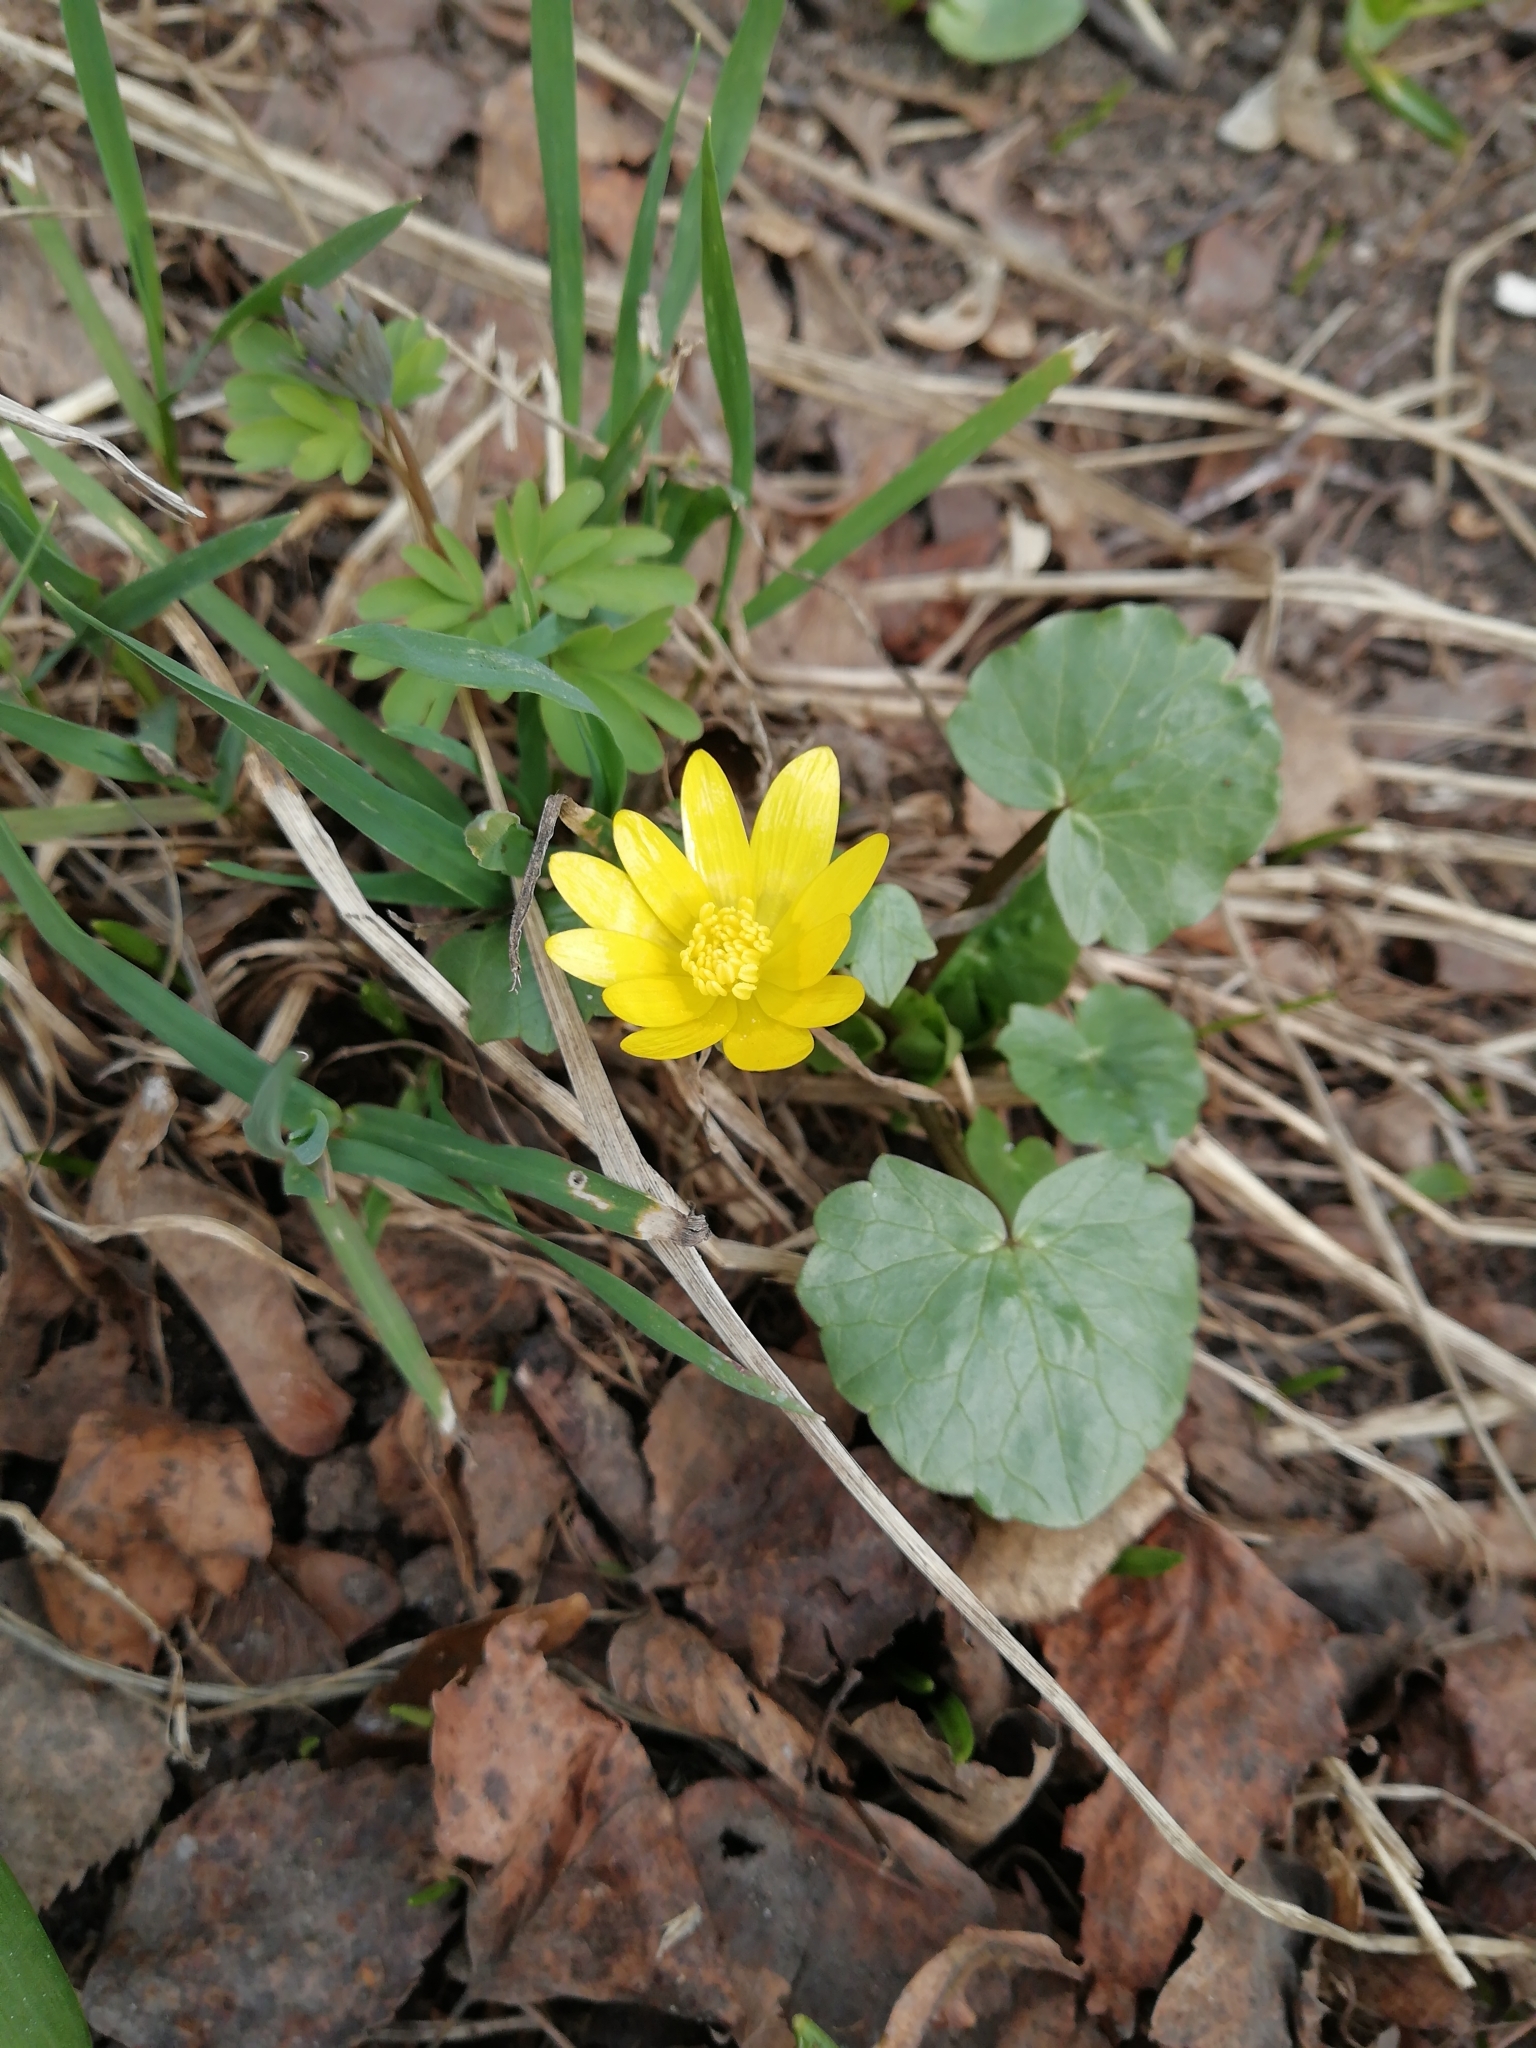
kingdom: Plantae
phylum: Tracheophyta
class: Magnoliopsida
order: Ranunculales
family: Ranunculaceae
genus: Ficaria
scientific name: Ficaria verna
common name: Lesser celandine
